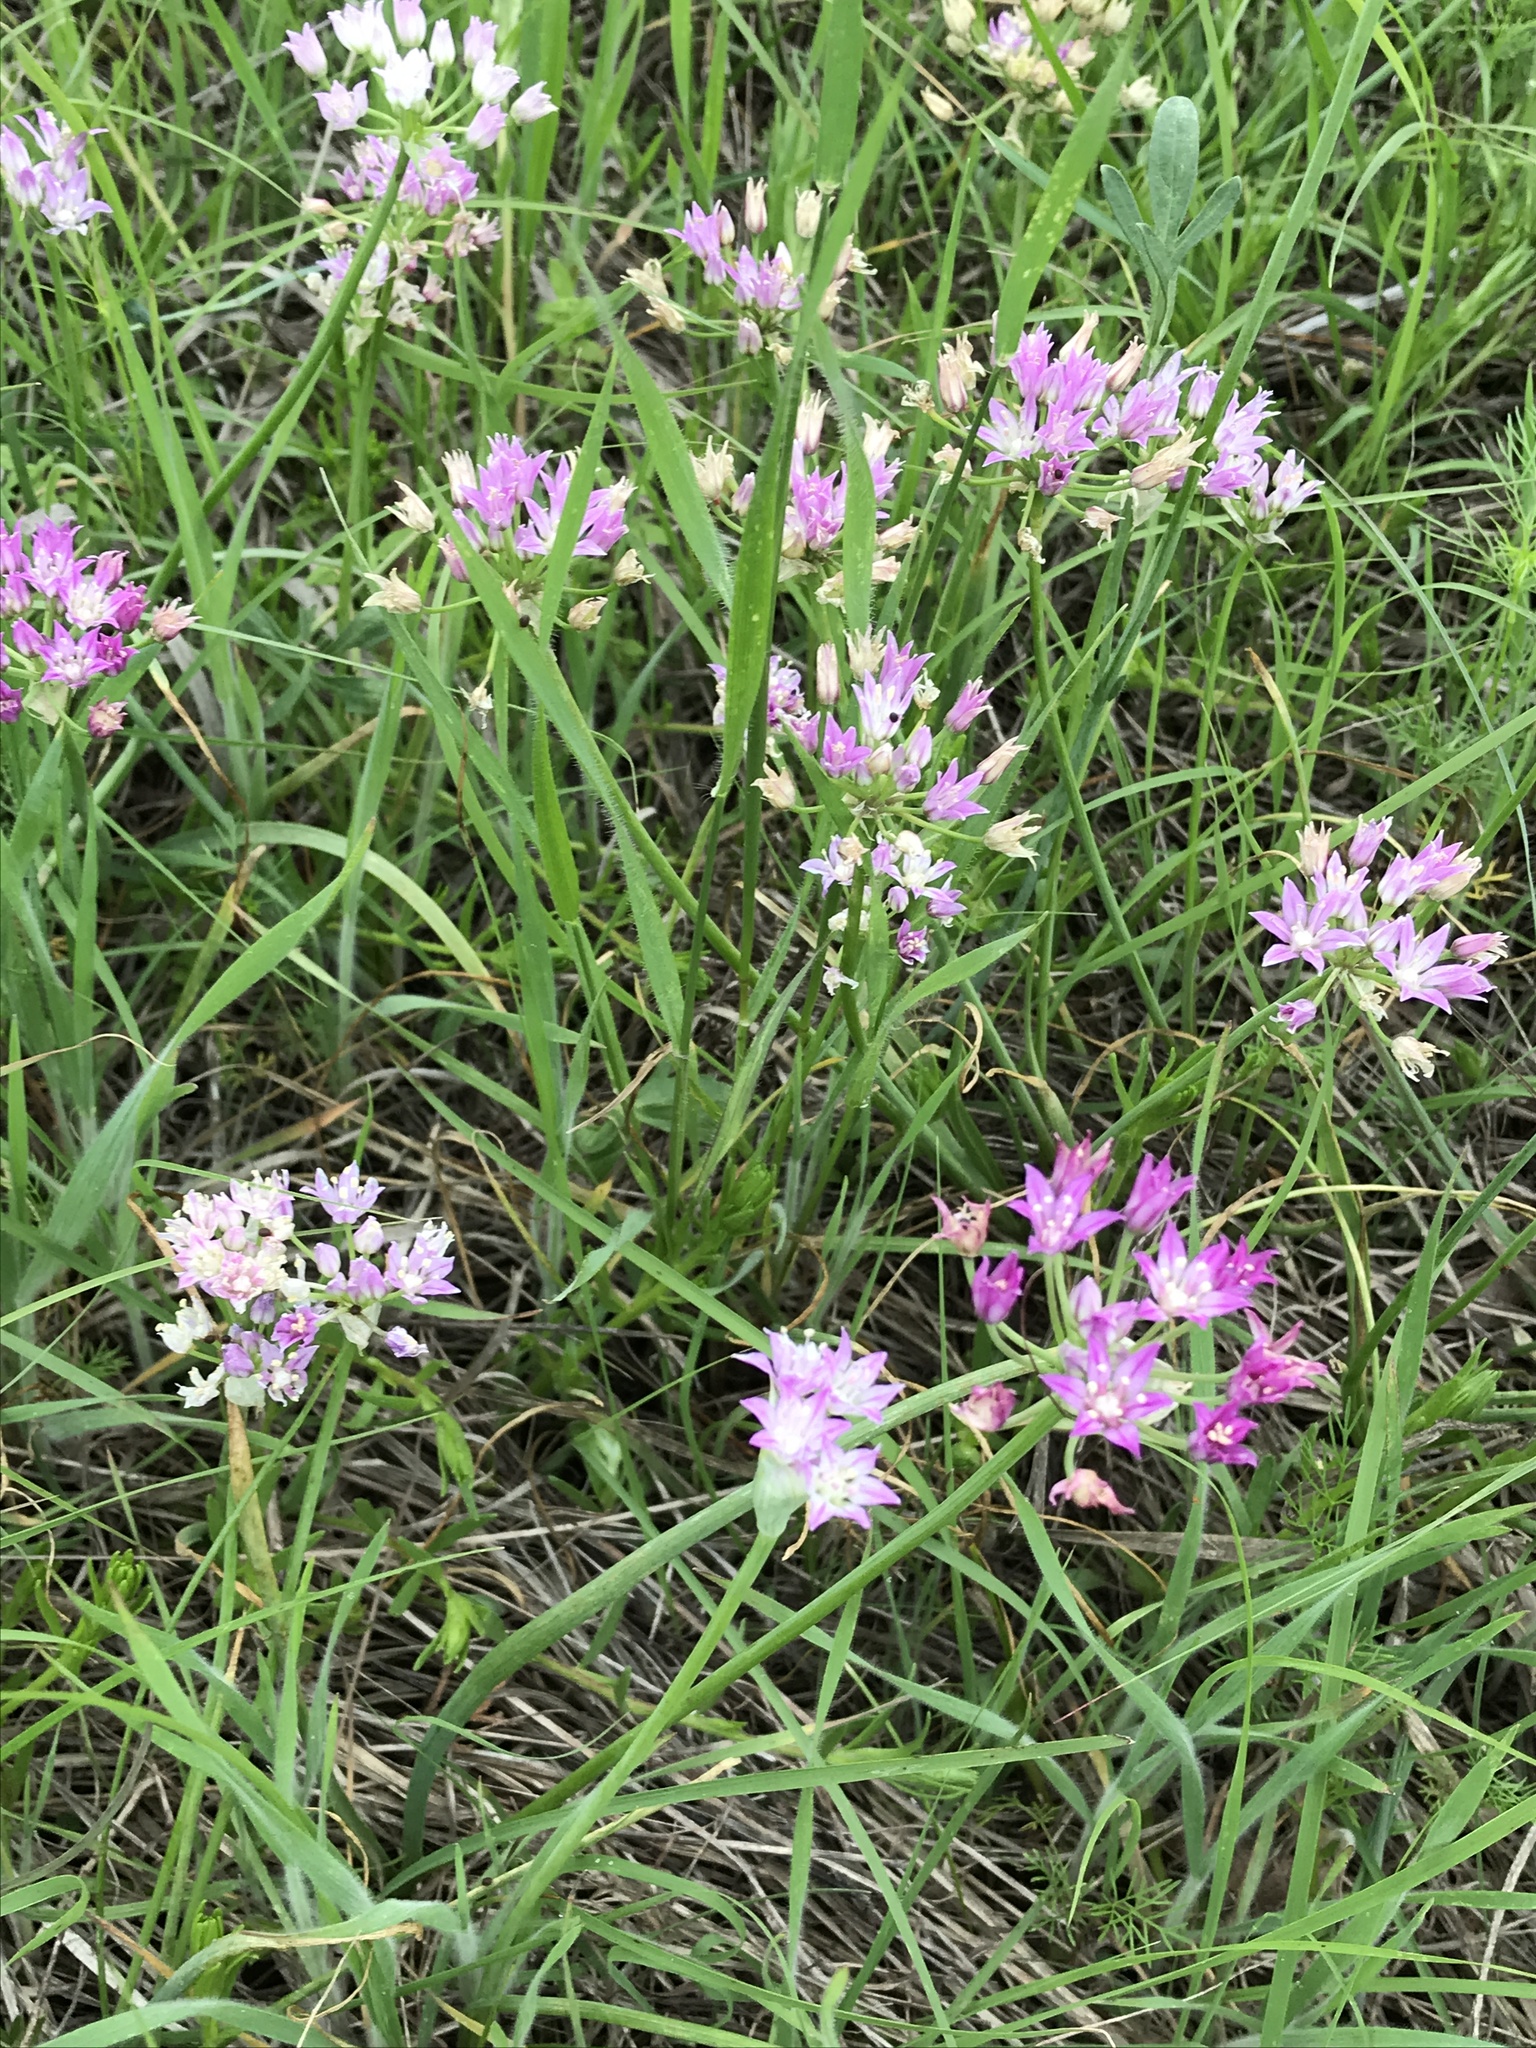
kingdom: Plantae
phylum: Tracheophyta
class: Liliopsida
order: Asparagales
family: Amaryllidaceae
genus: Allium
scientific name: Allium drummondii
